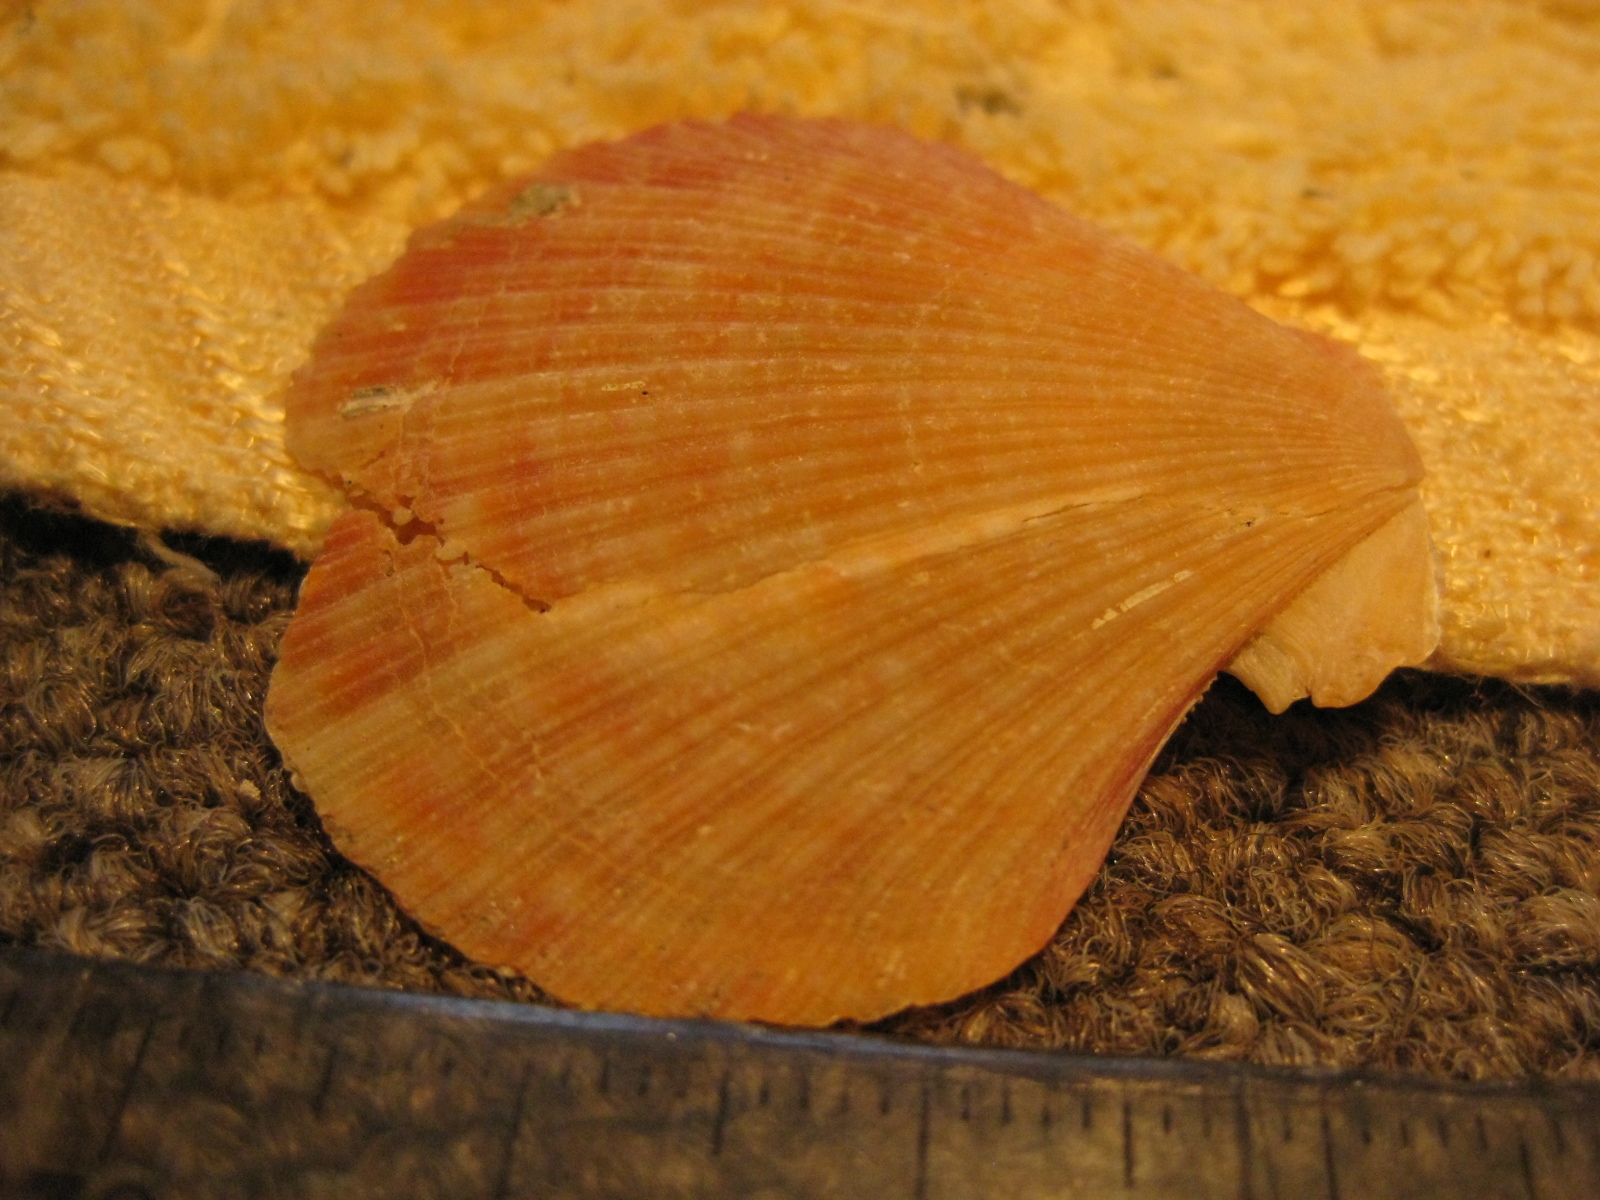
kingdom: Animalia
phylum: Mollusca
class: Bivalvia
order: Pectinida
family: Pectinidae
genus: Talochlamys
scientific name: Talochlamys gemmulata
